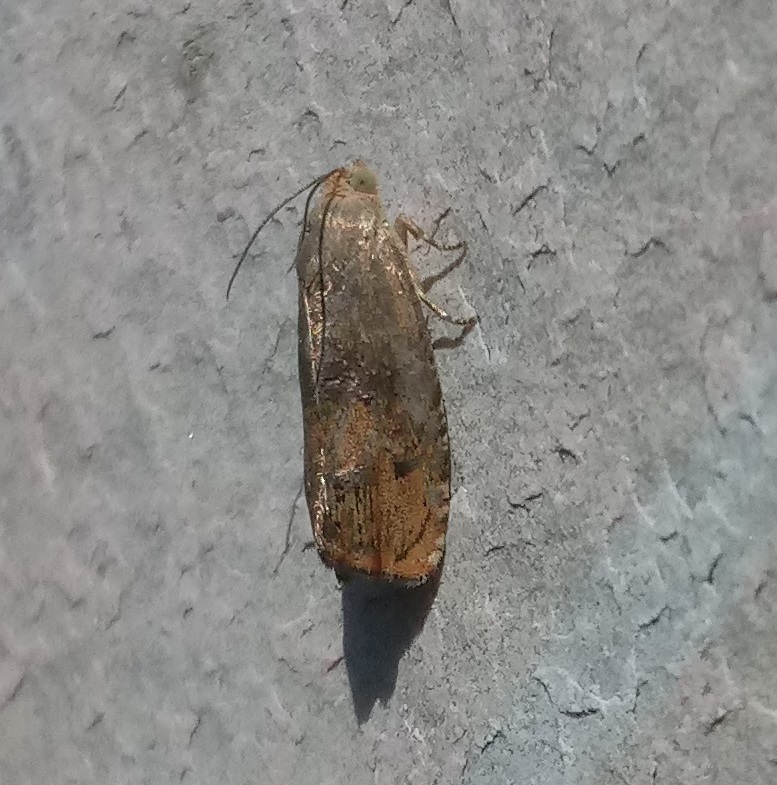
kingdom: Animalia
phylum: Arthropoda
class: Insecta
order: Lepidoptera
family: Tortricidae
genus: Cydia
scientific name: Cydia latiferreana
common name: Filbertworm moth
